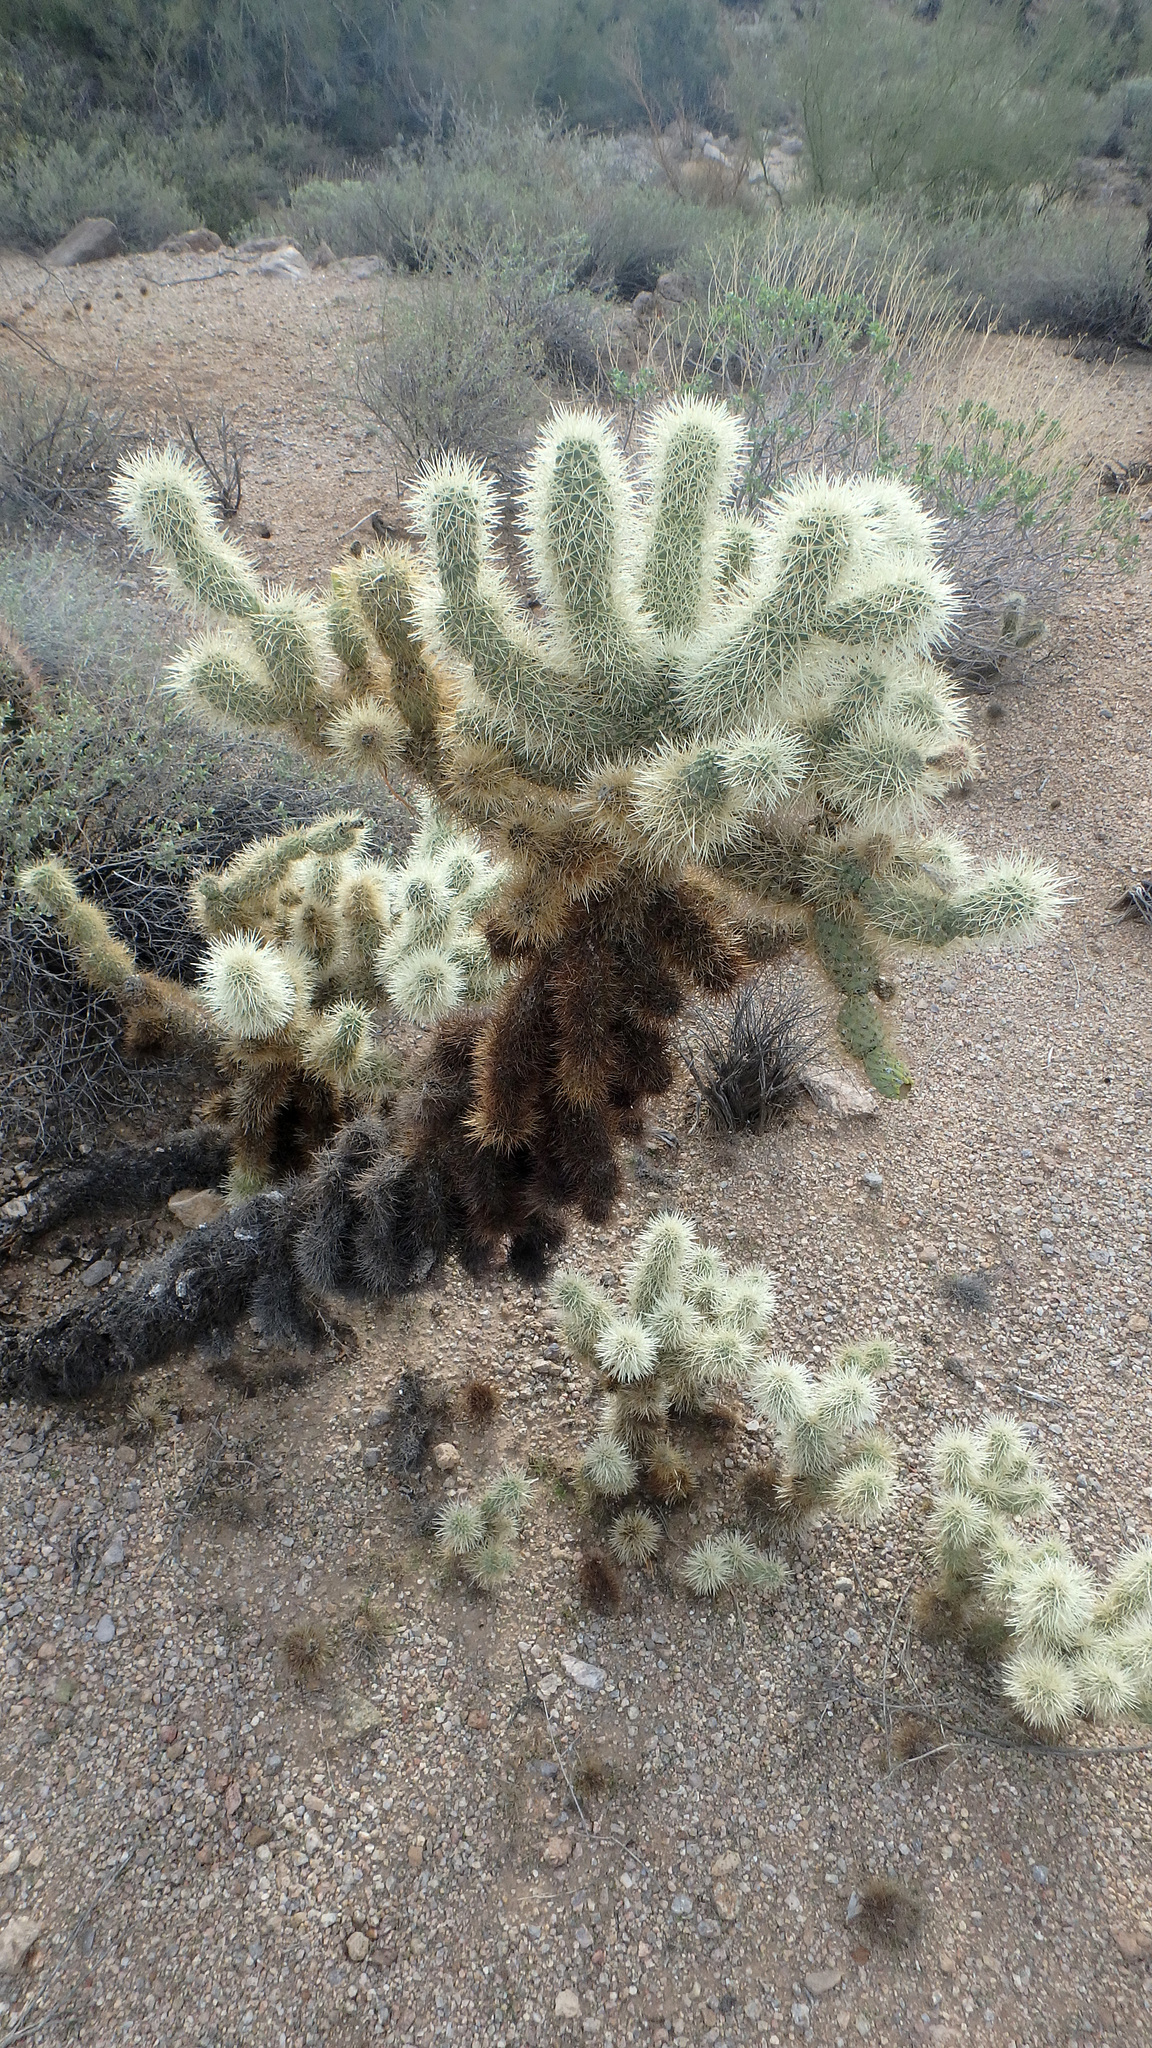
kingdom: Plantae
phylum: Tracheophyta
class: Magnoliopsida
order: Caryophyllales
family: Cactaceae
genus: Cylindropuntia
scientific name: Cylindropuntia fosbergii
